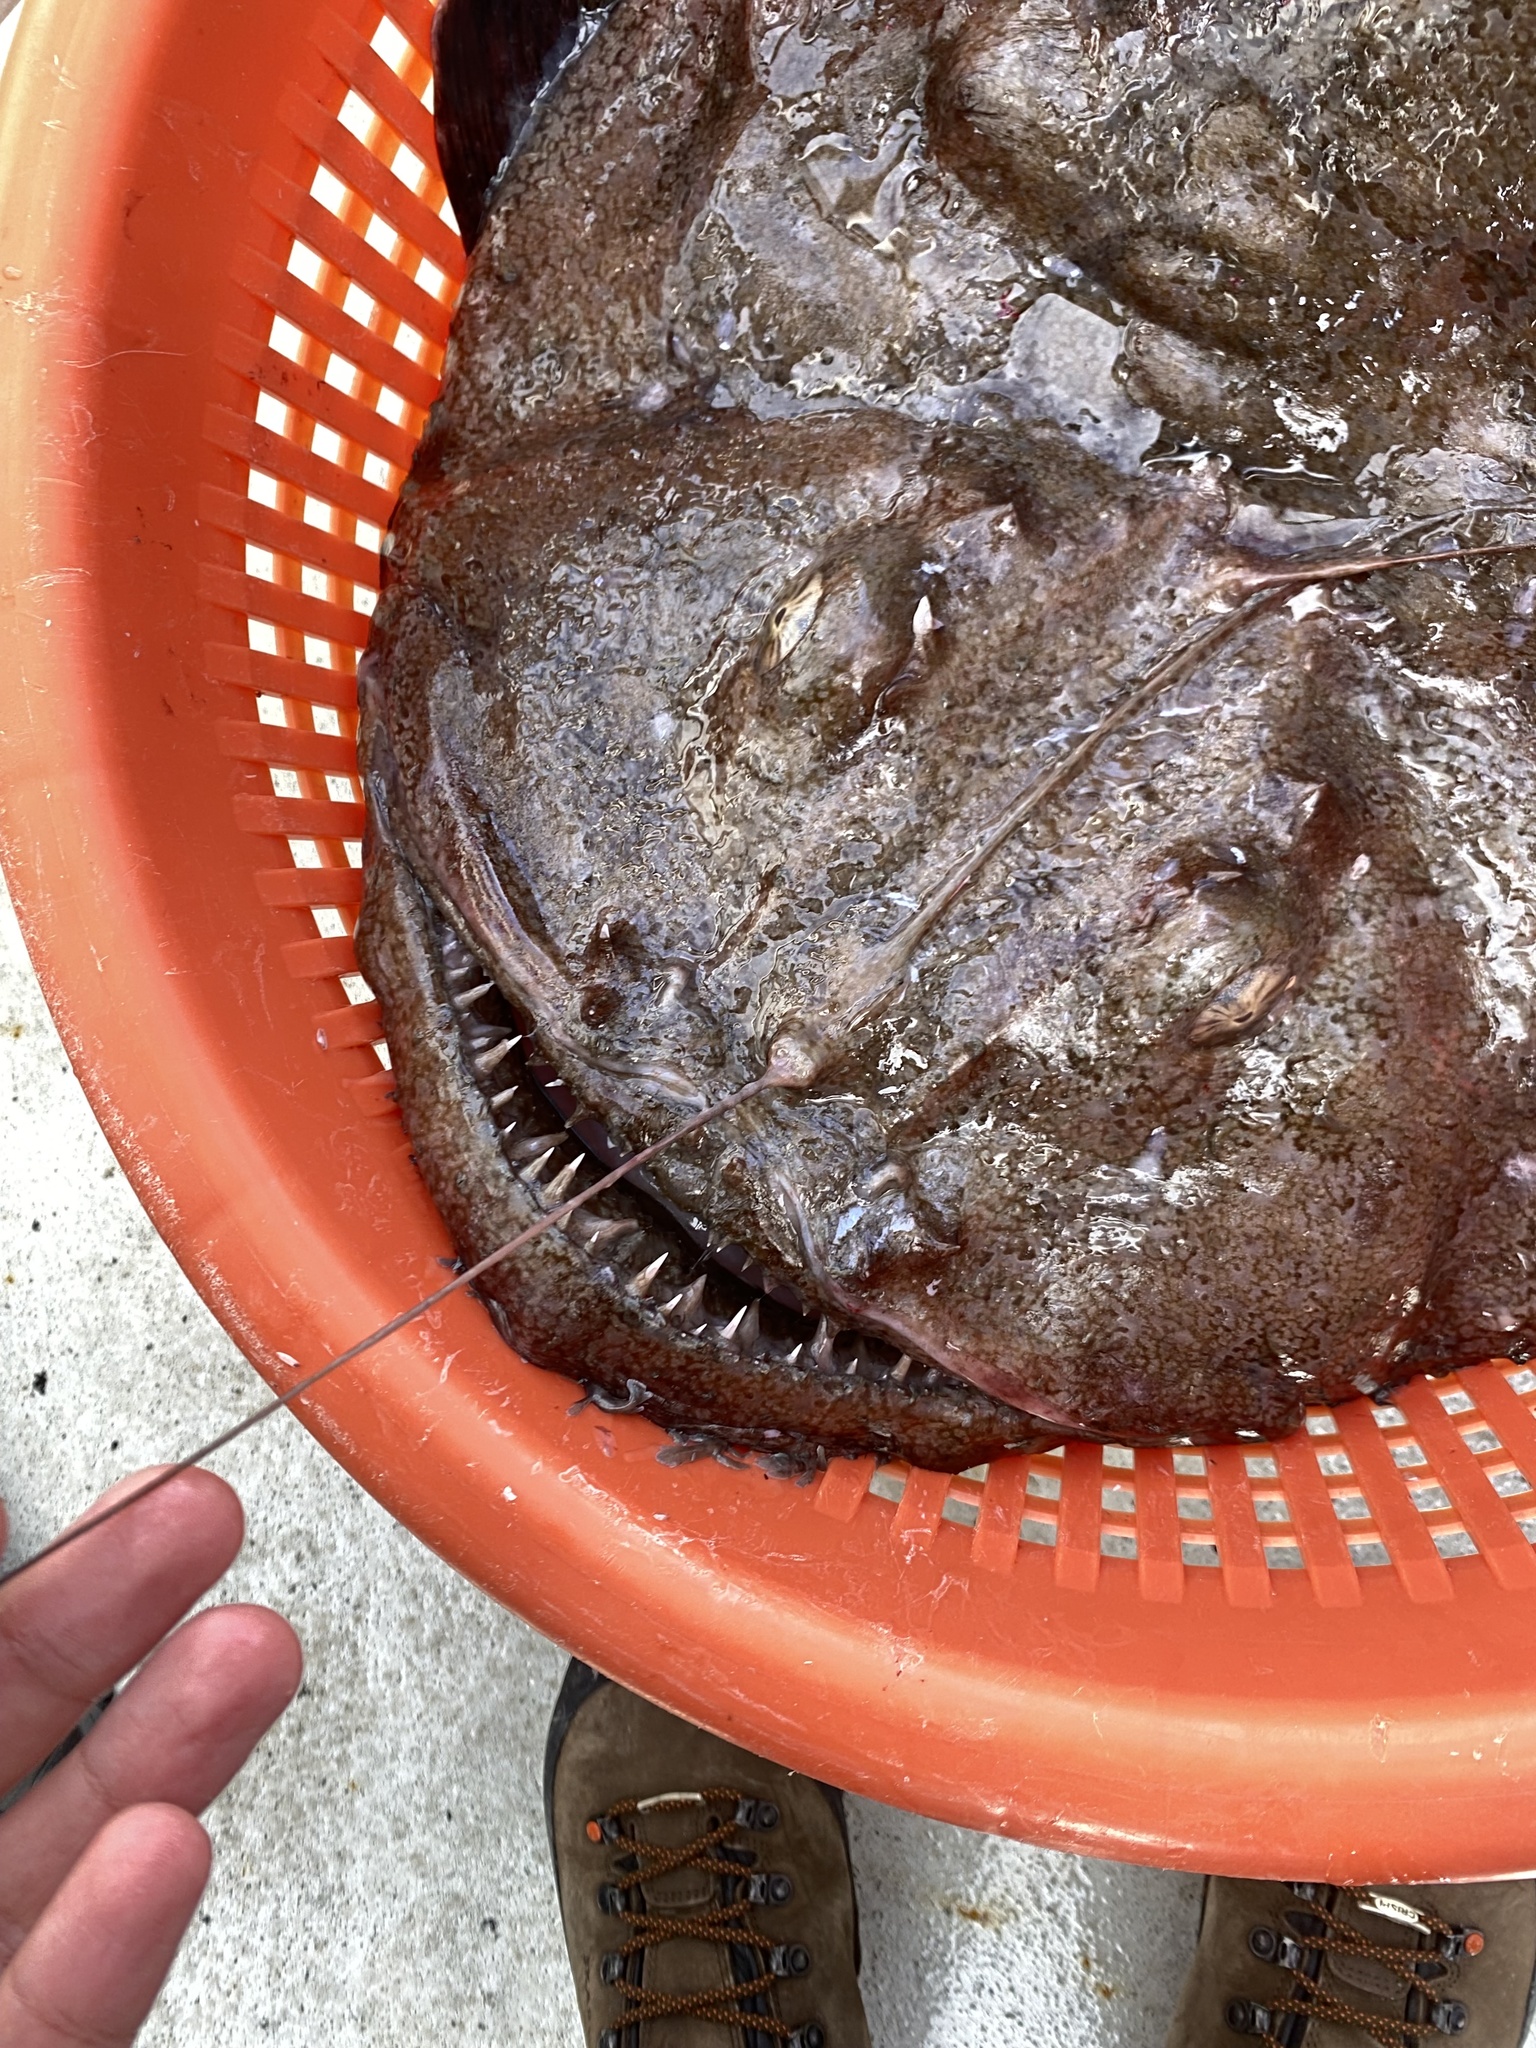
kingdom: Animalia
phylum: Chordata
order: Lophiiformes
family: Lophiidae
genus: Lophius
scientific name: Lophius piscatorius
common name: Angler
